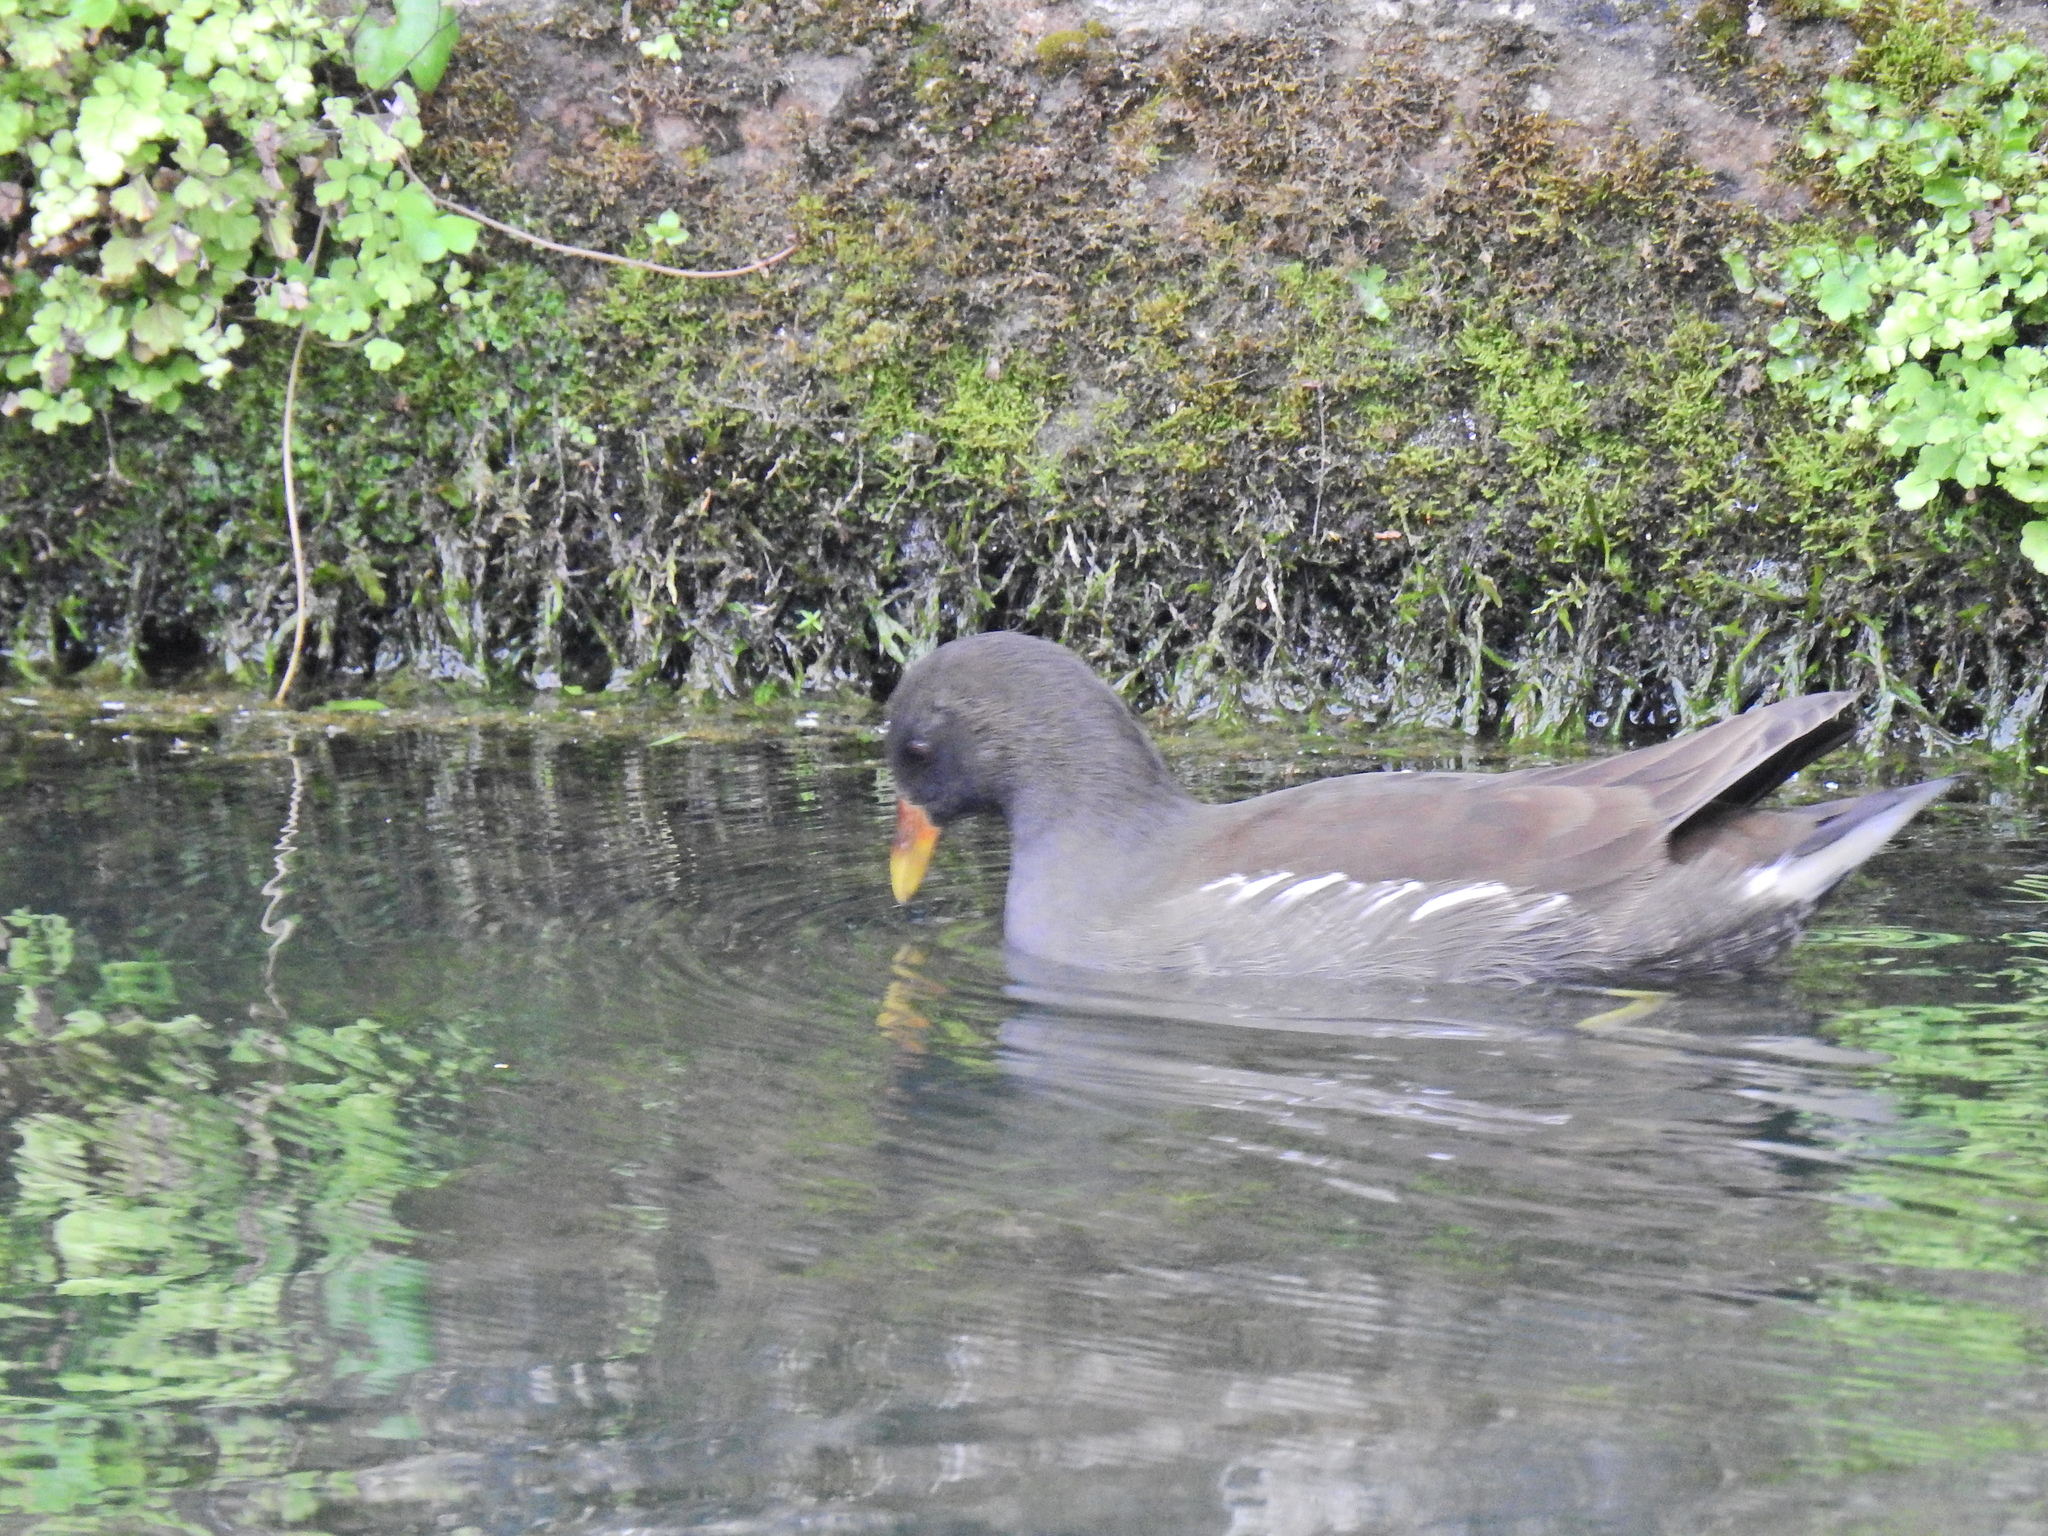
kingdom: Animalia
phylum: Chordata
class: Aves
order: Gruiformes
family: Rallidae
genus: Gallinula
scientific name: Gallinula chloropus
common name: Common moorhen
